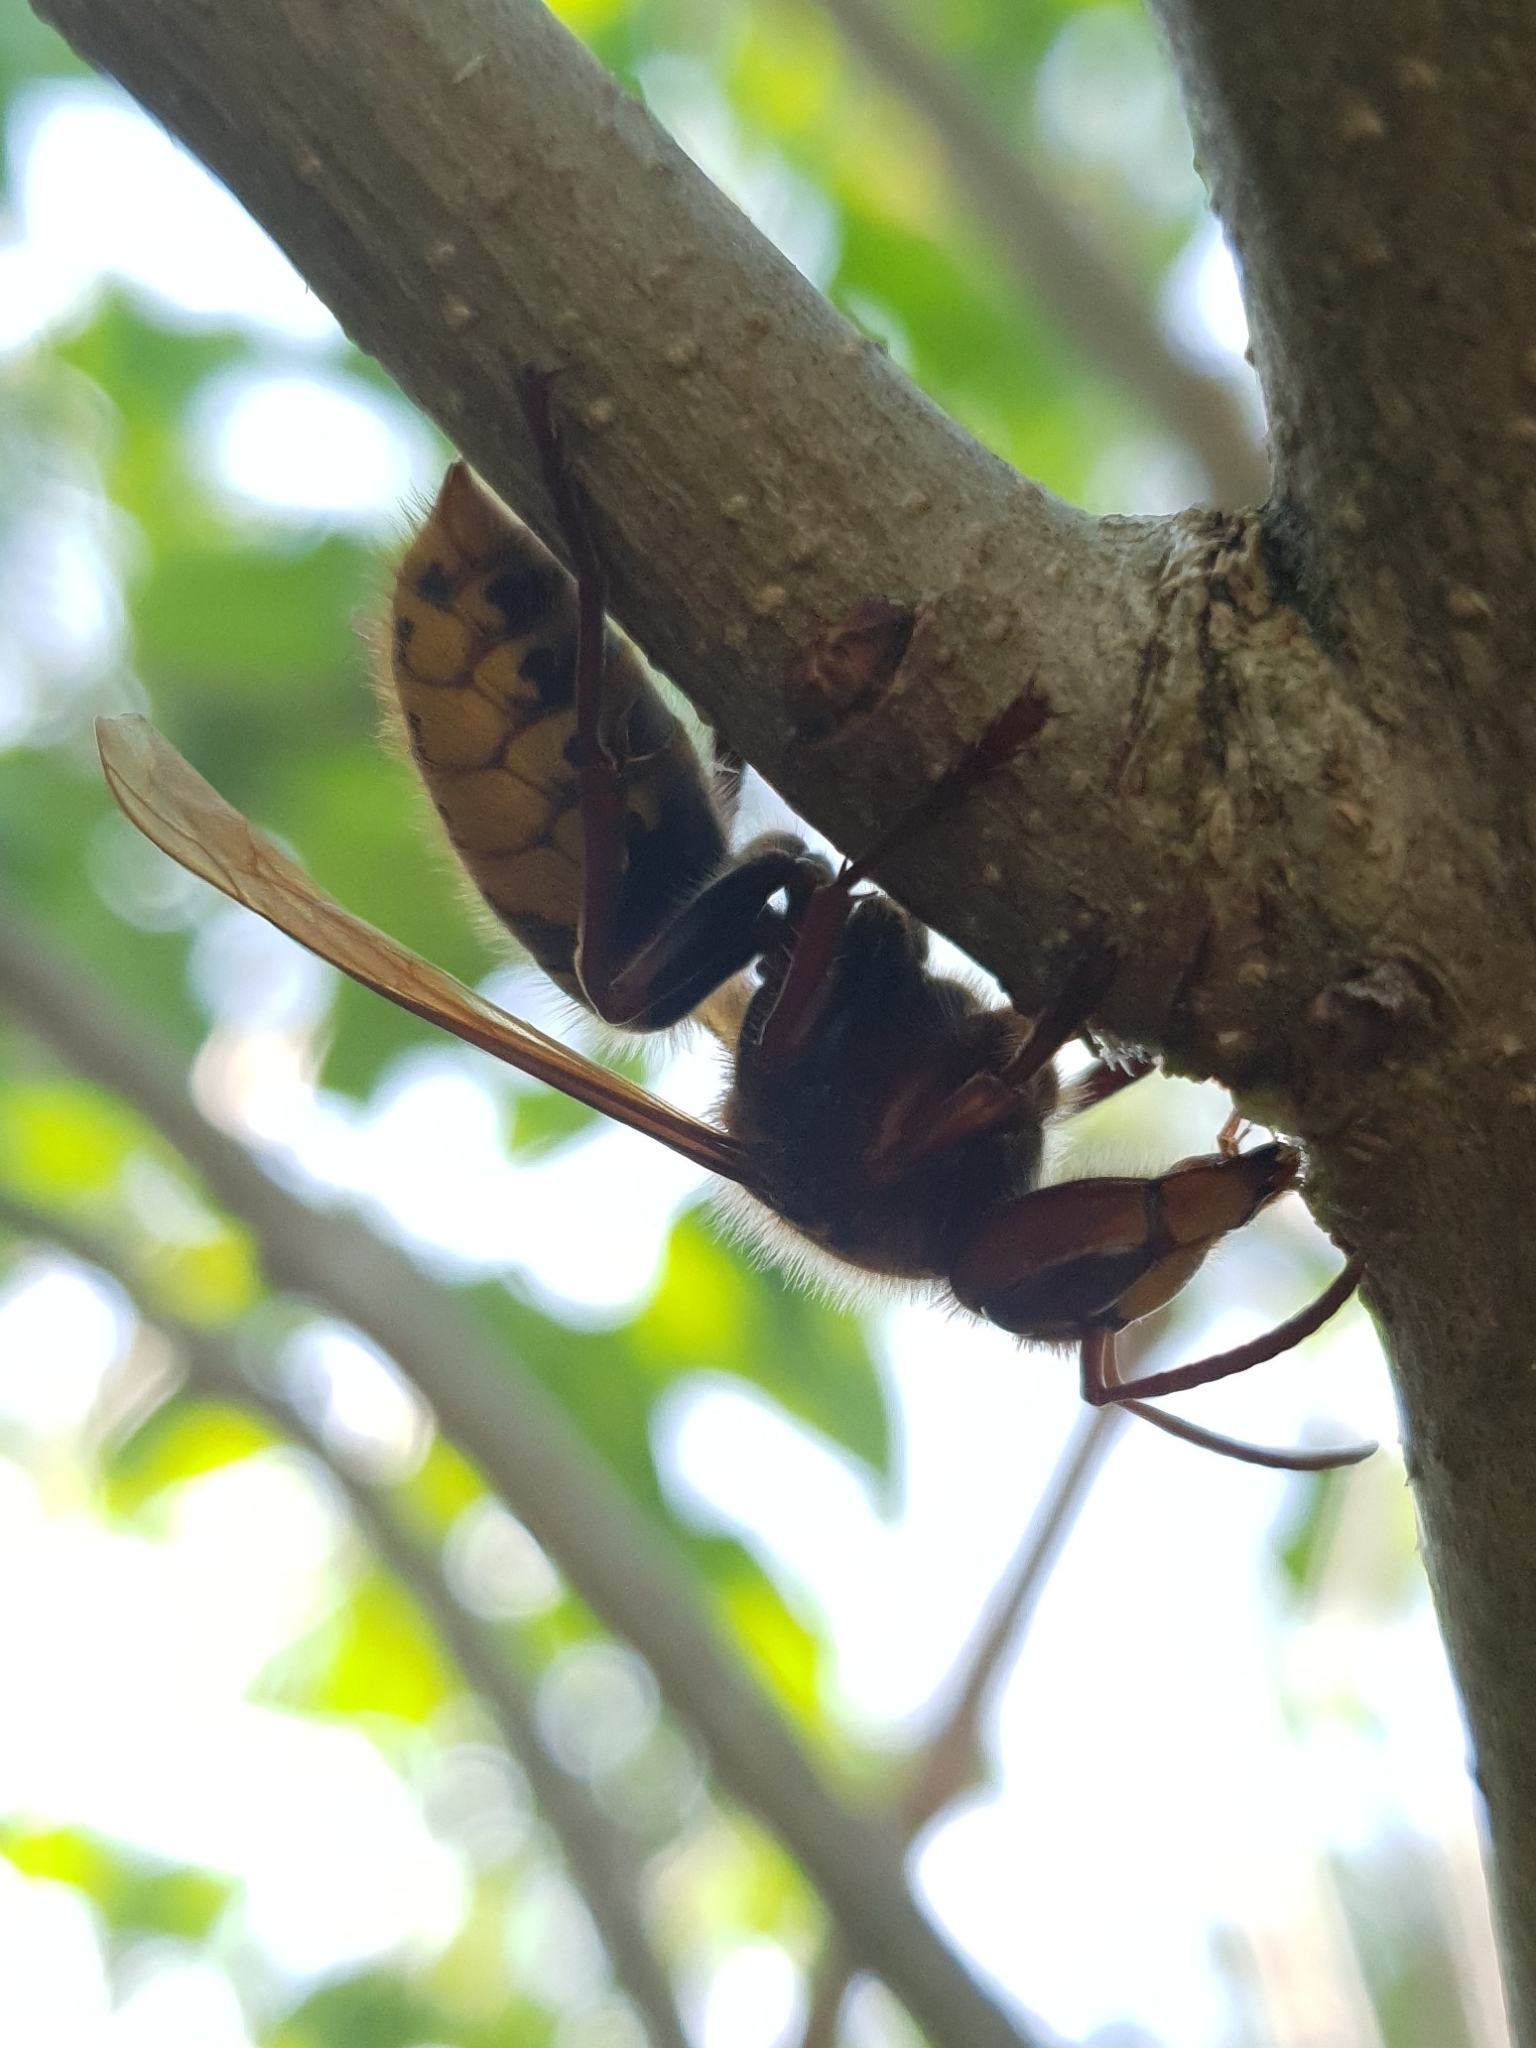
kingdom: Animalia
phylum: Arthropoda
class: Insecta
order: Hymenoptera
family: Vespidae
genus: Vespa
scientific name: Vespa crabro
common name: Hornet
